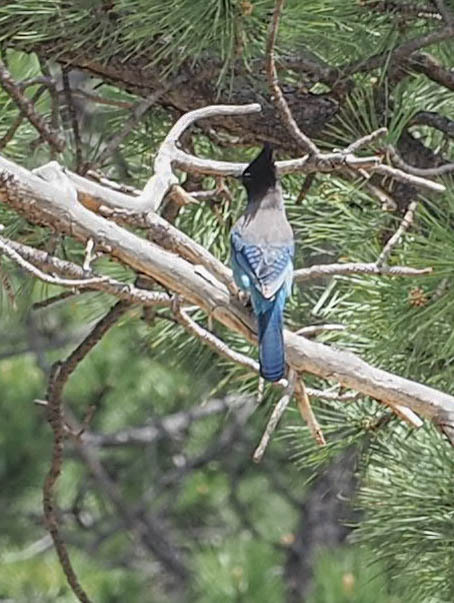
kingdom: Animalia
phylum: Chordata
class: Aves
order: Passeriformes
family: Corvidae
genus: Cyanocitta
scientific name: Cyanocitta stelleri
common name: Steller's jay
